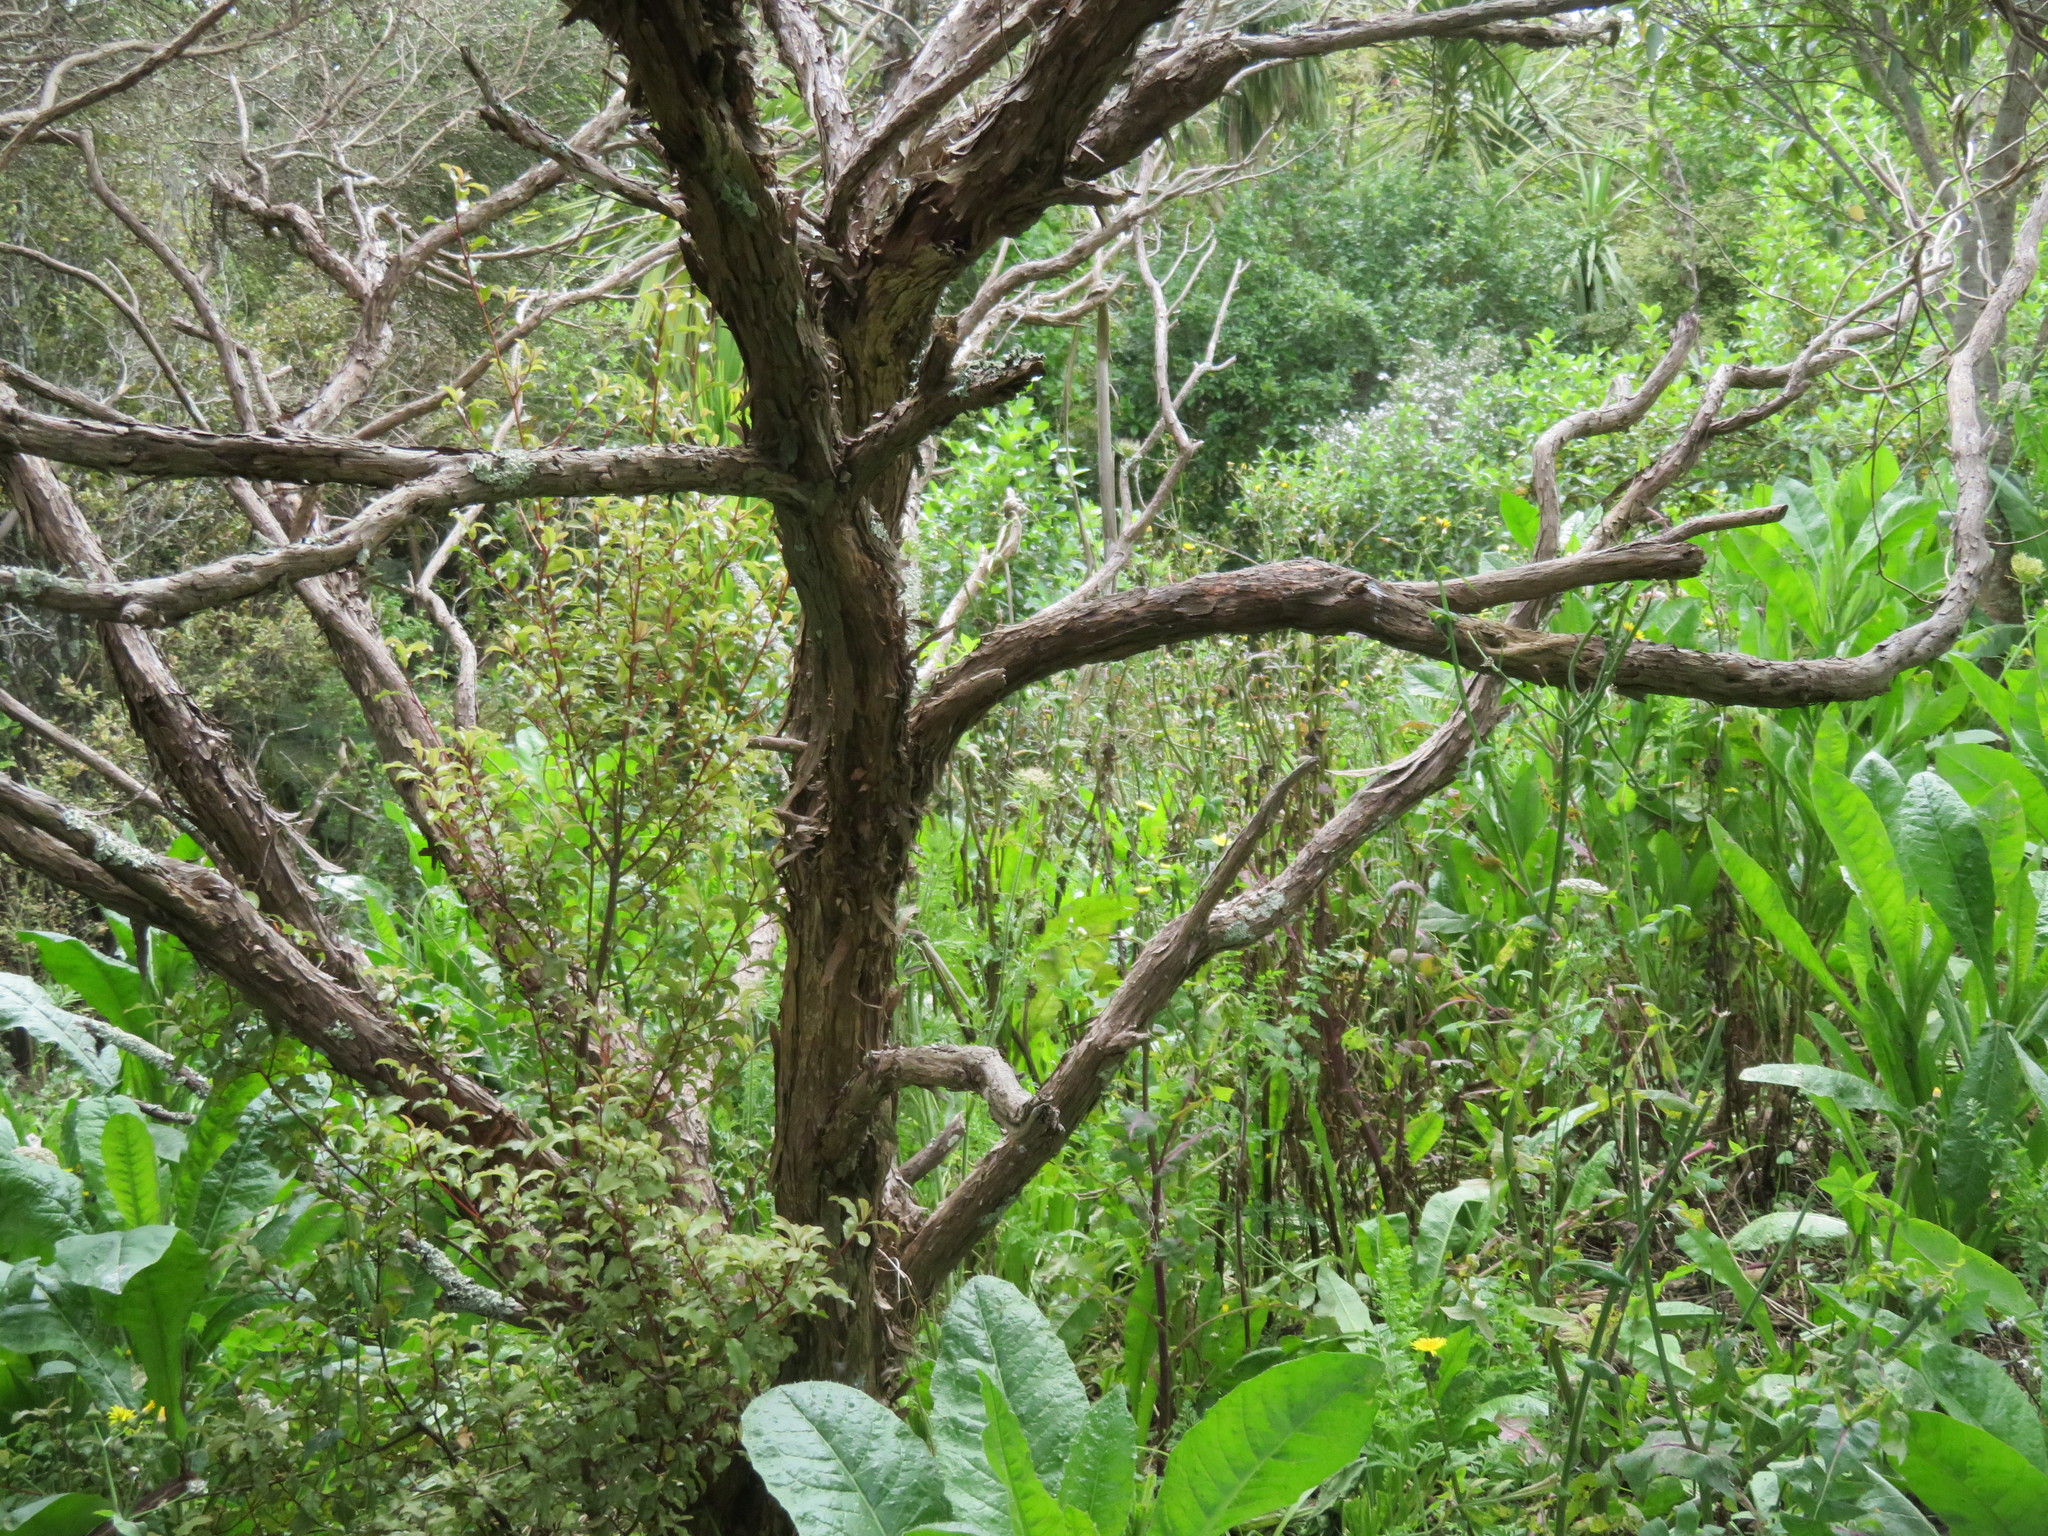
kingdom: Plantae
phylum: Tracheophyta
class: Magnoliopsida
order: Ericales
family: Primulaceae
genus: Myrsine
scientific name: Myrsine australis
